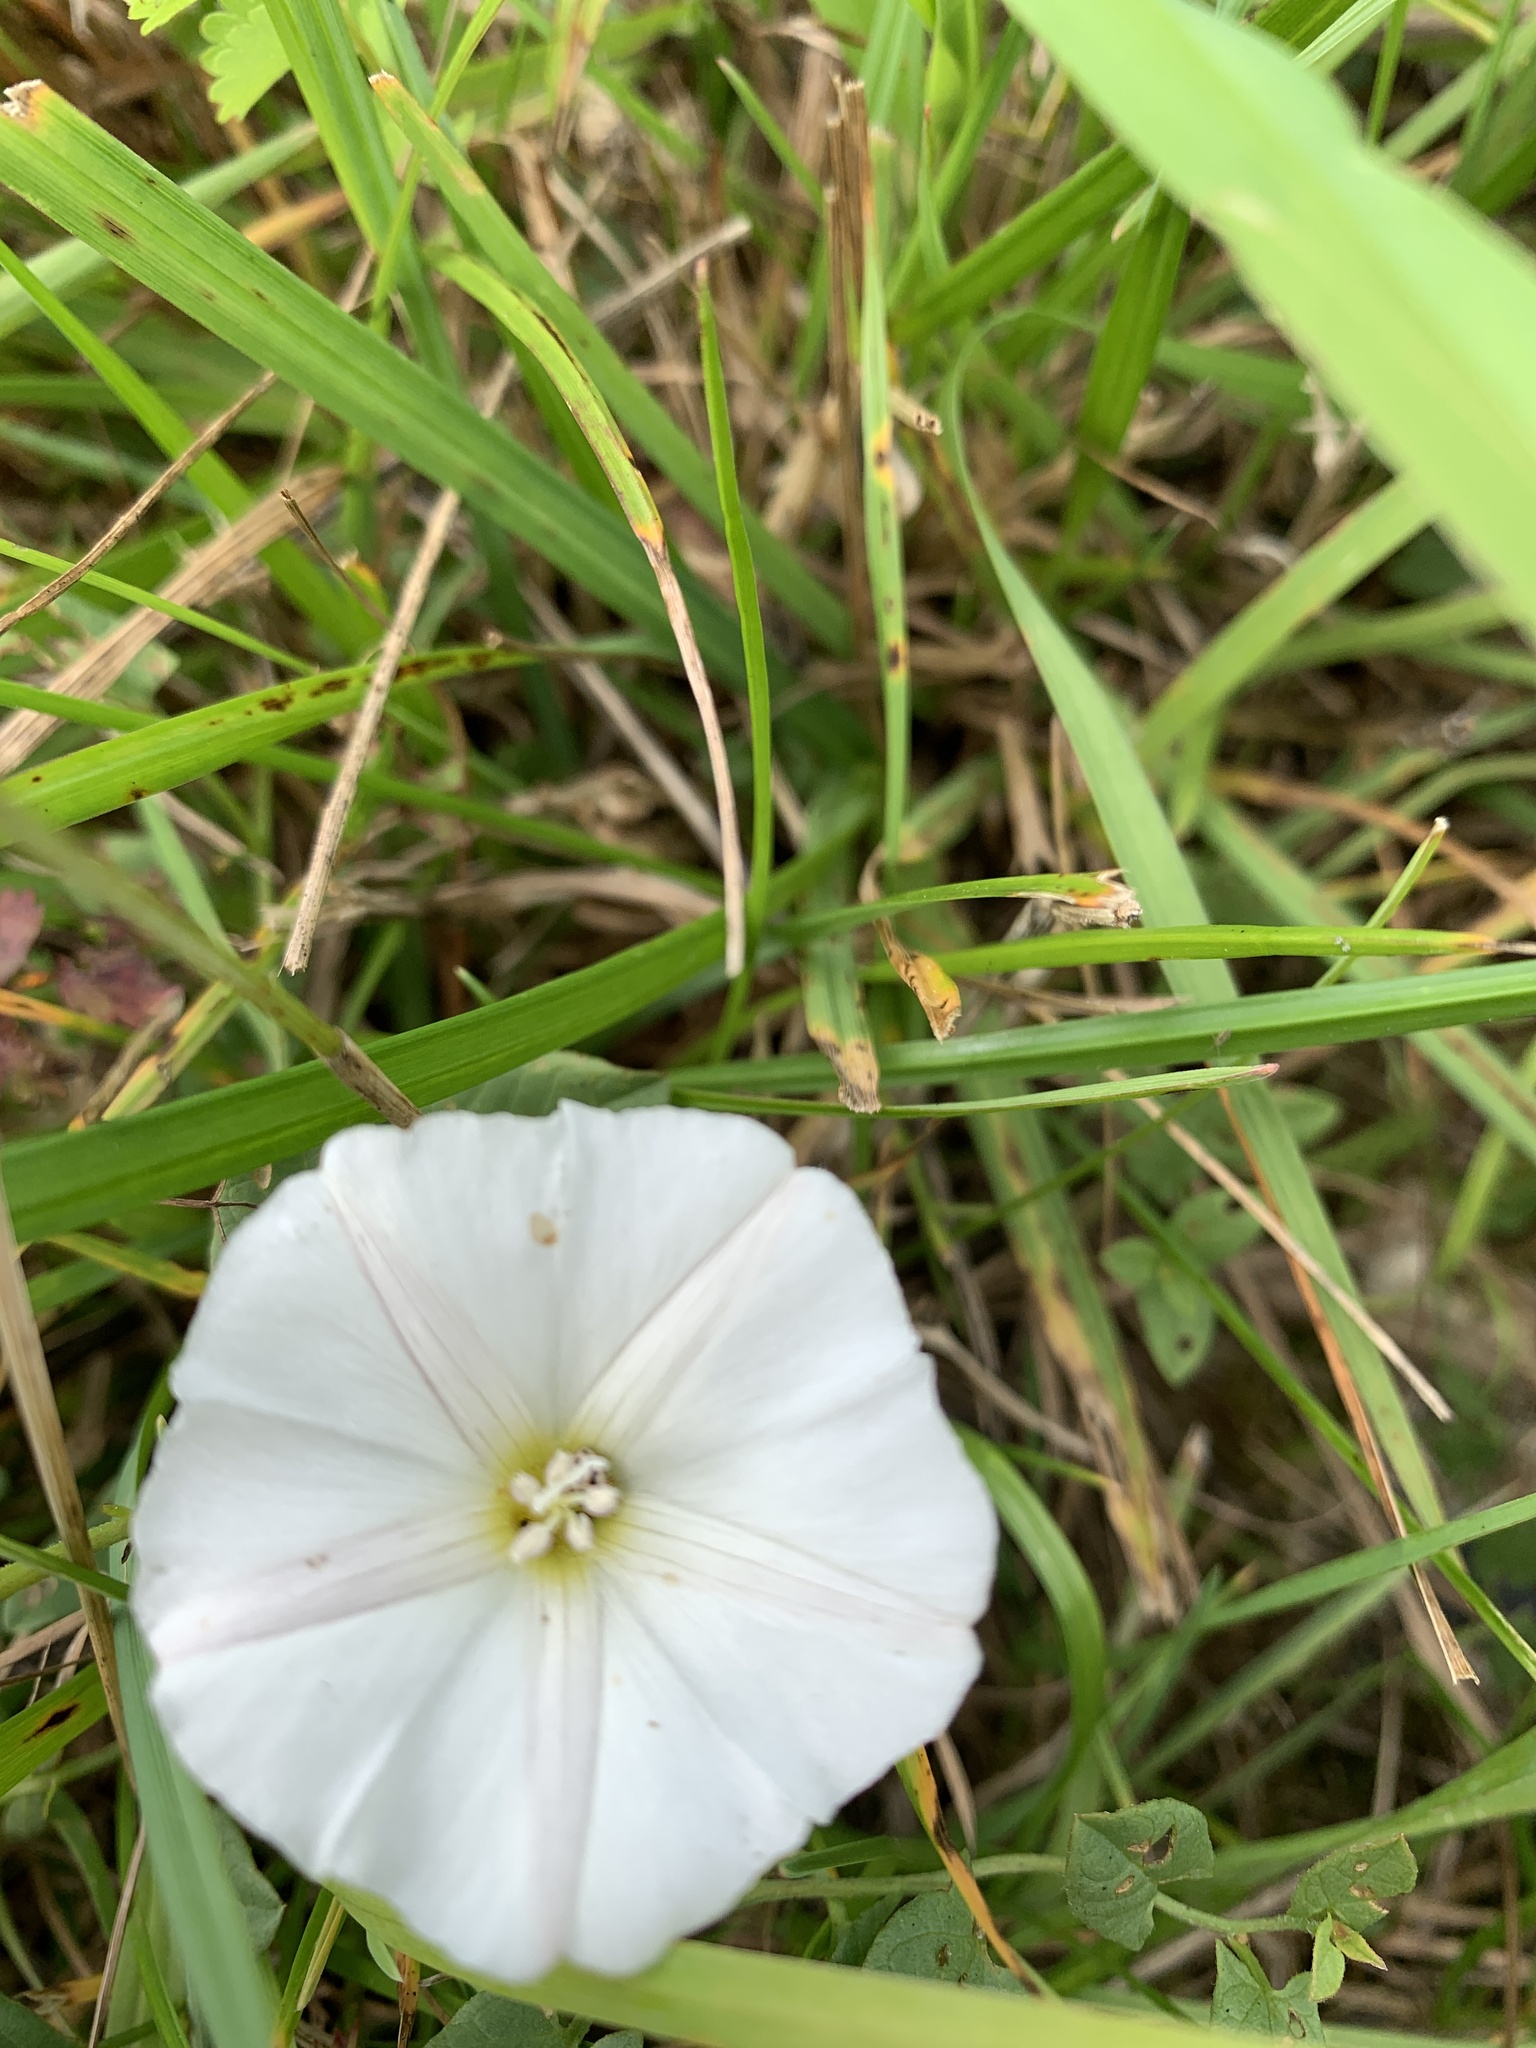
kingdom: Plantae
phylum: Tracheophyta
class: Magnoliopsida
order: Solanales
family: Convolvulaceae
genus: Convolvulus
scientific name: Convolvulus arvensis
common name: Field bindweed
